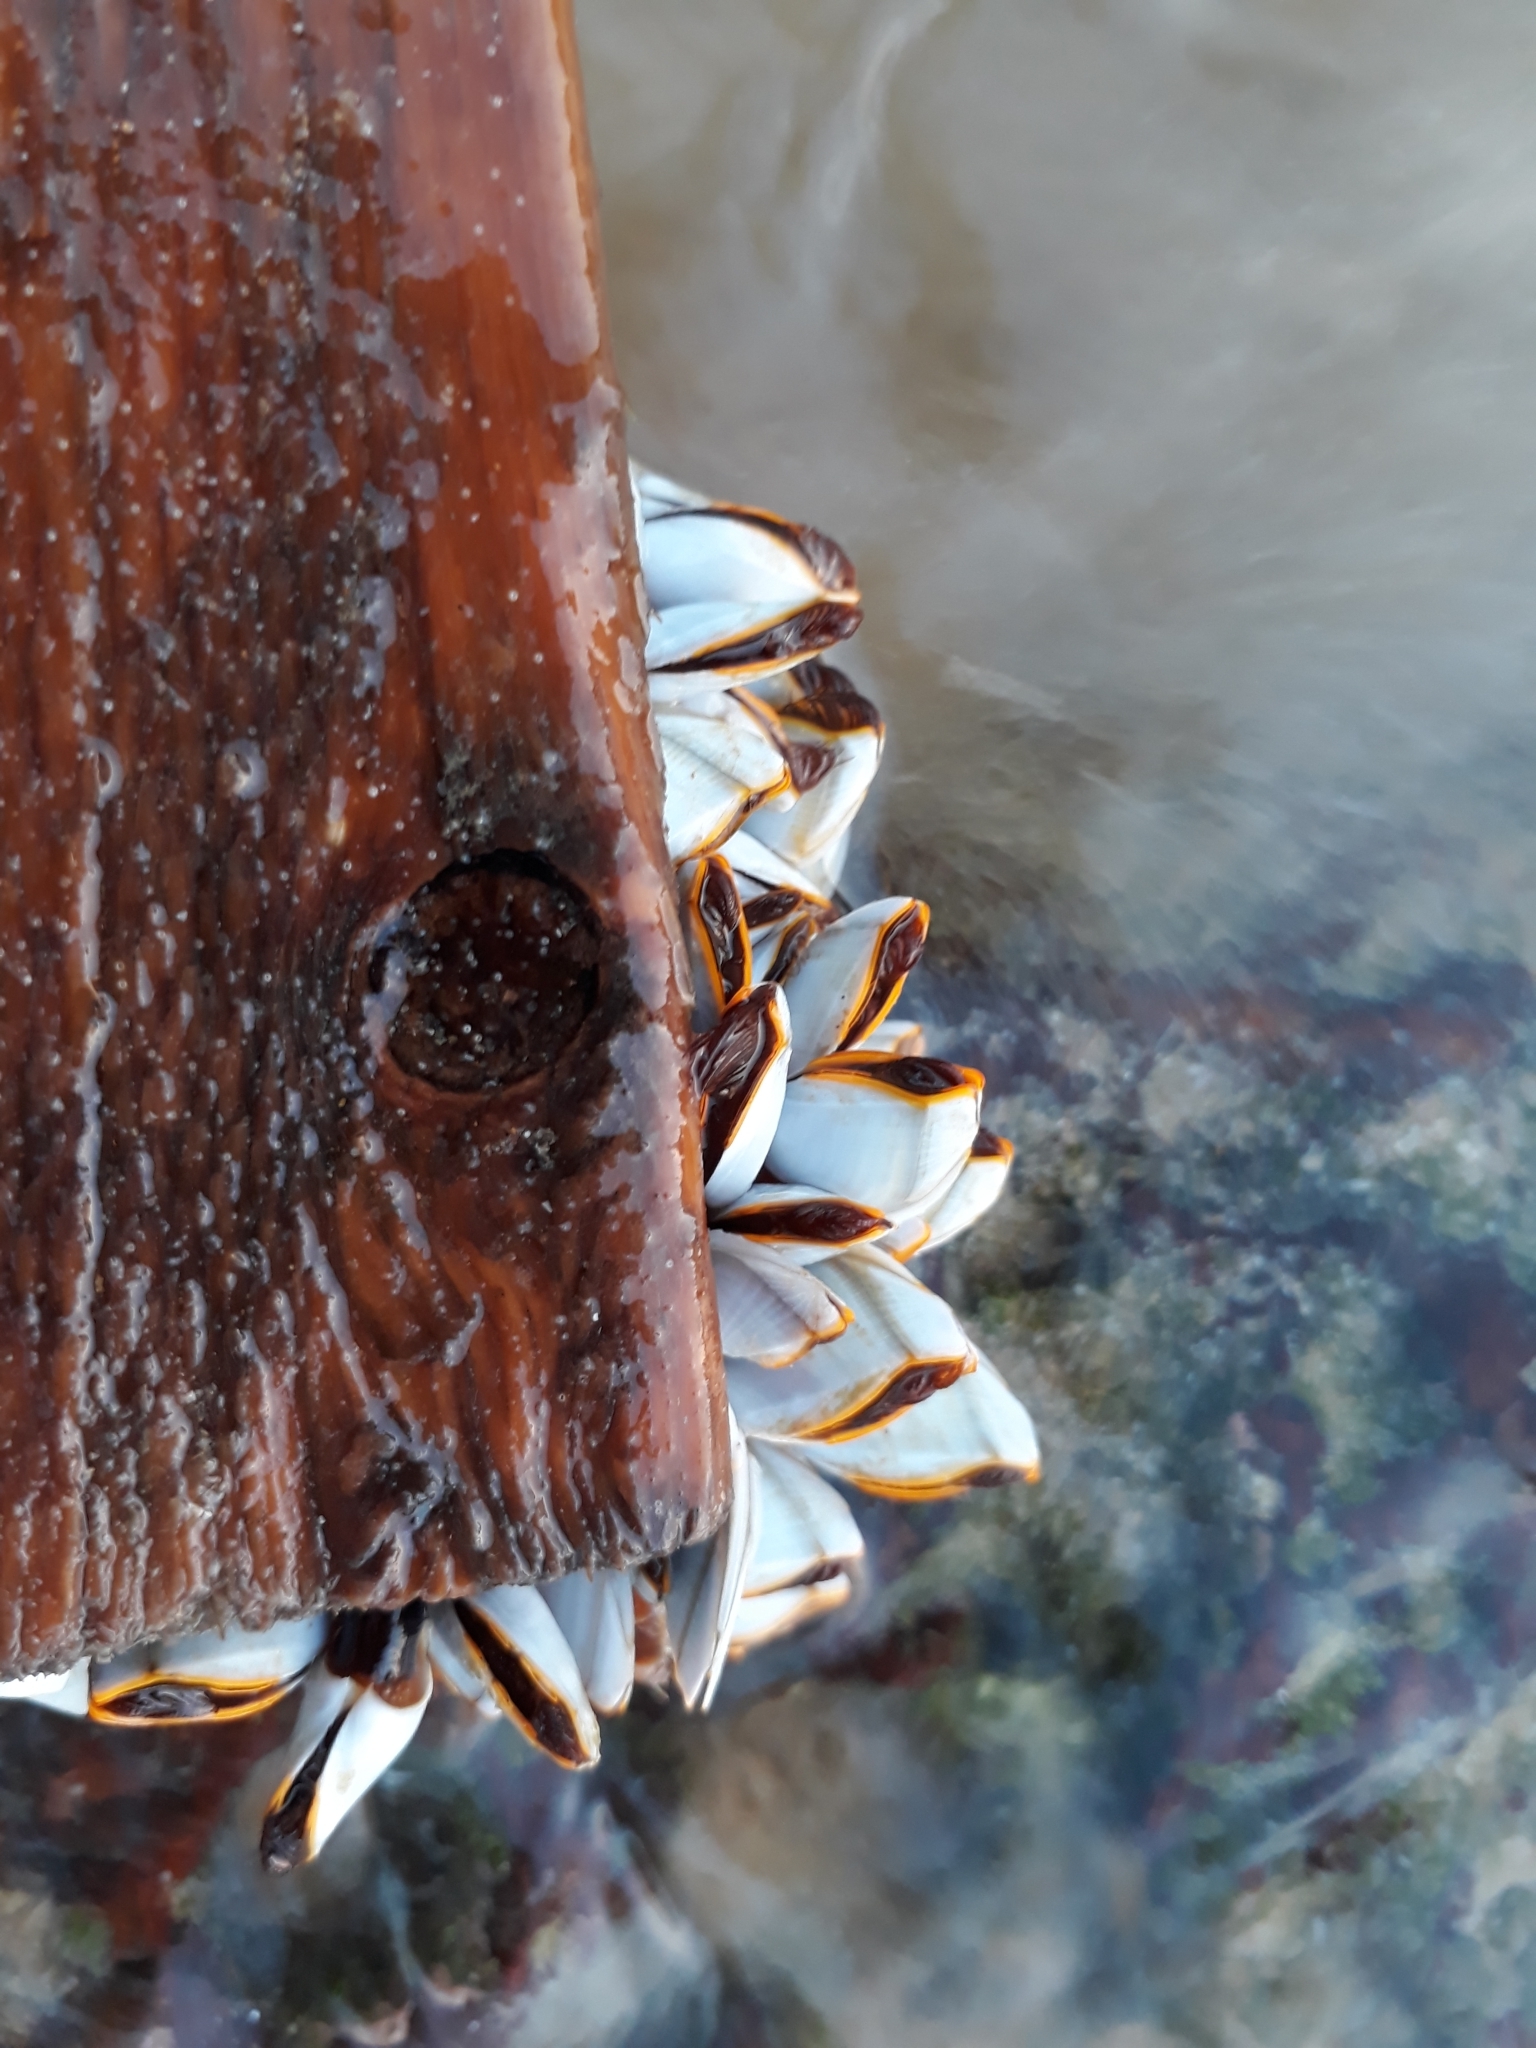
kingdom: Animalia
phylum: Arthropoda
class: Maxillopoda
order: Pedunculata
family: Lepadidae
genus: Lepas
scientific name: Lepas anserifera
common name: Goose barnacle
